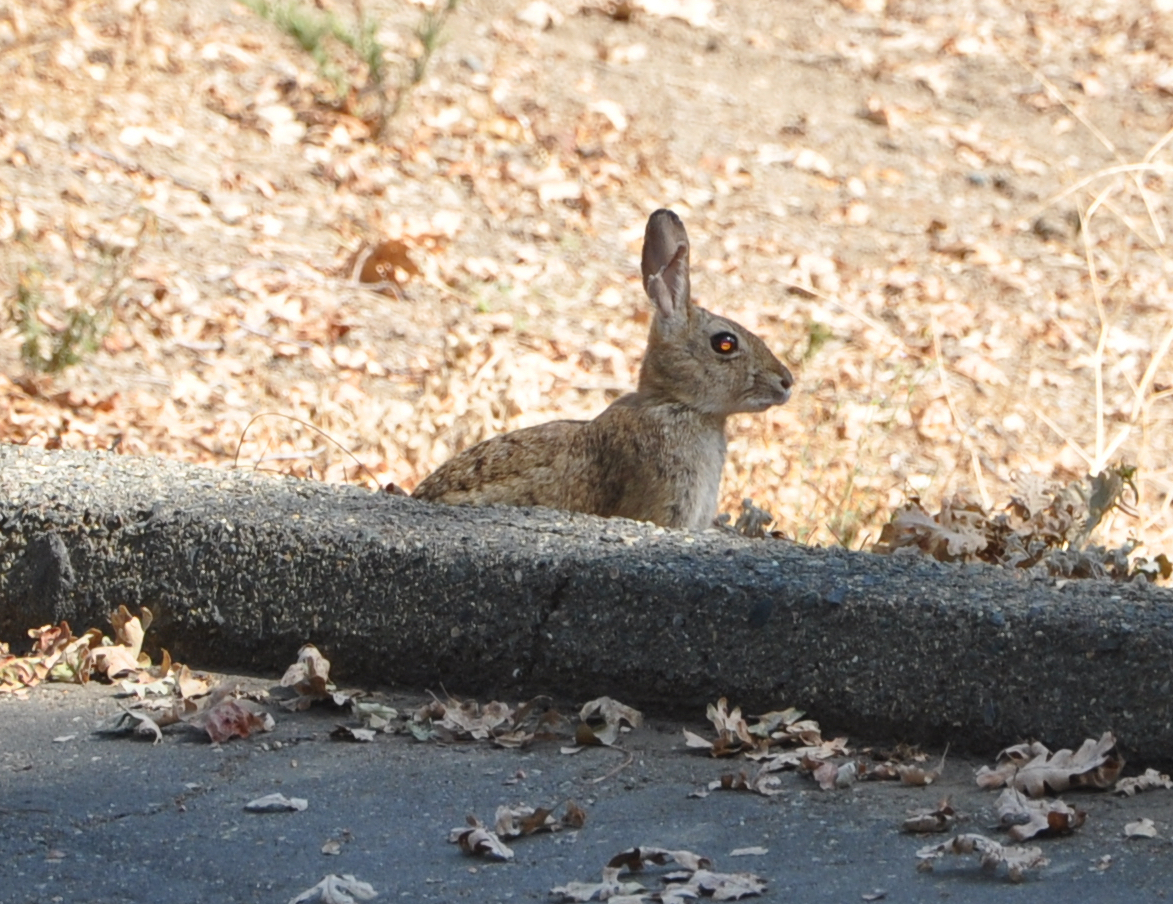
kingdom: Animalia
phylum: Chordata
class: Mammalia
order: Lagomorpha
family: Leporidae
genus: Sylvilagus
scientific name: Sylvilagus audubonii
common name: Desert cottontail
